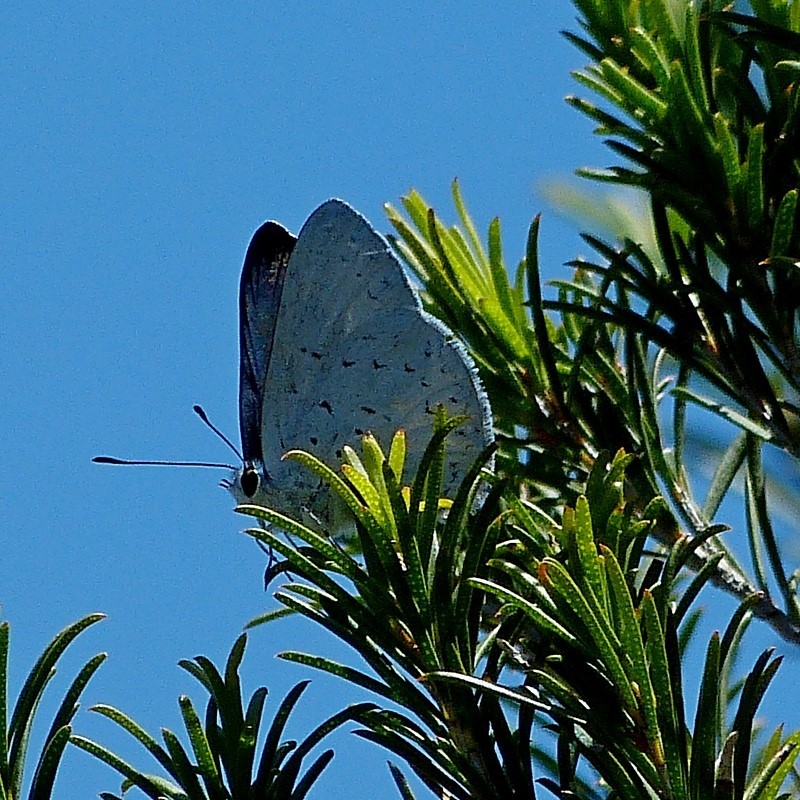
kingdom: Animalia
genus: Eirmocides
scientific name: Eirmocides
